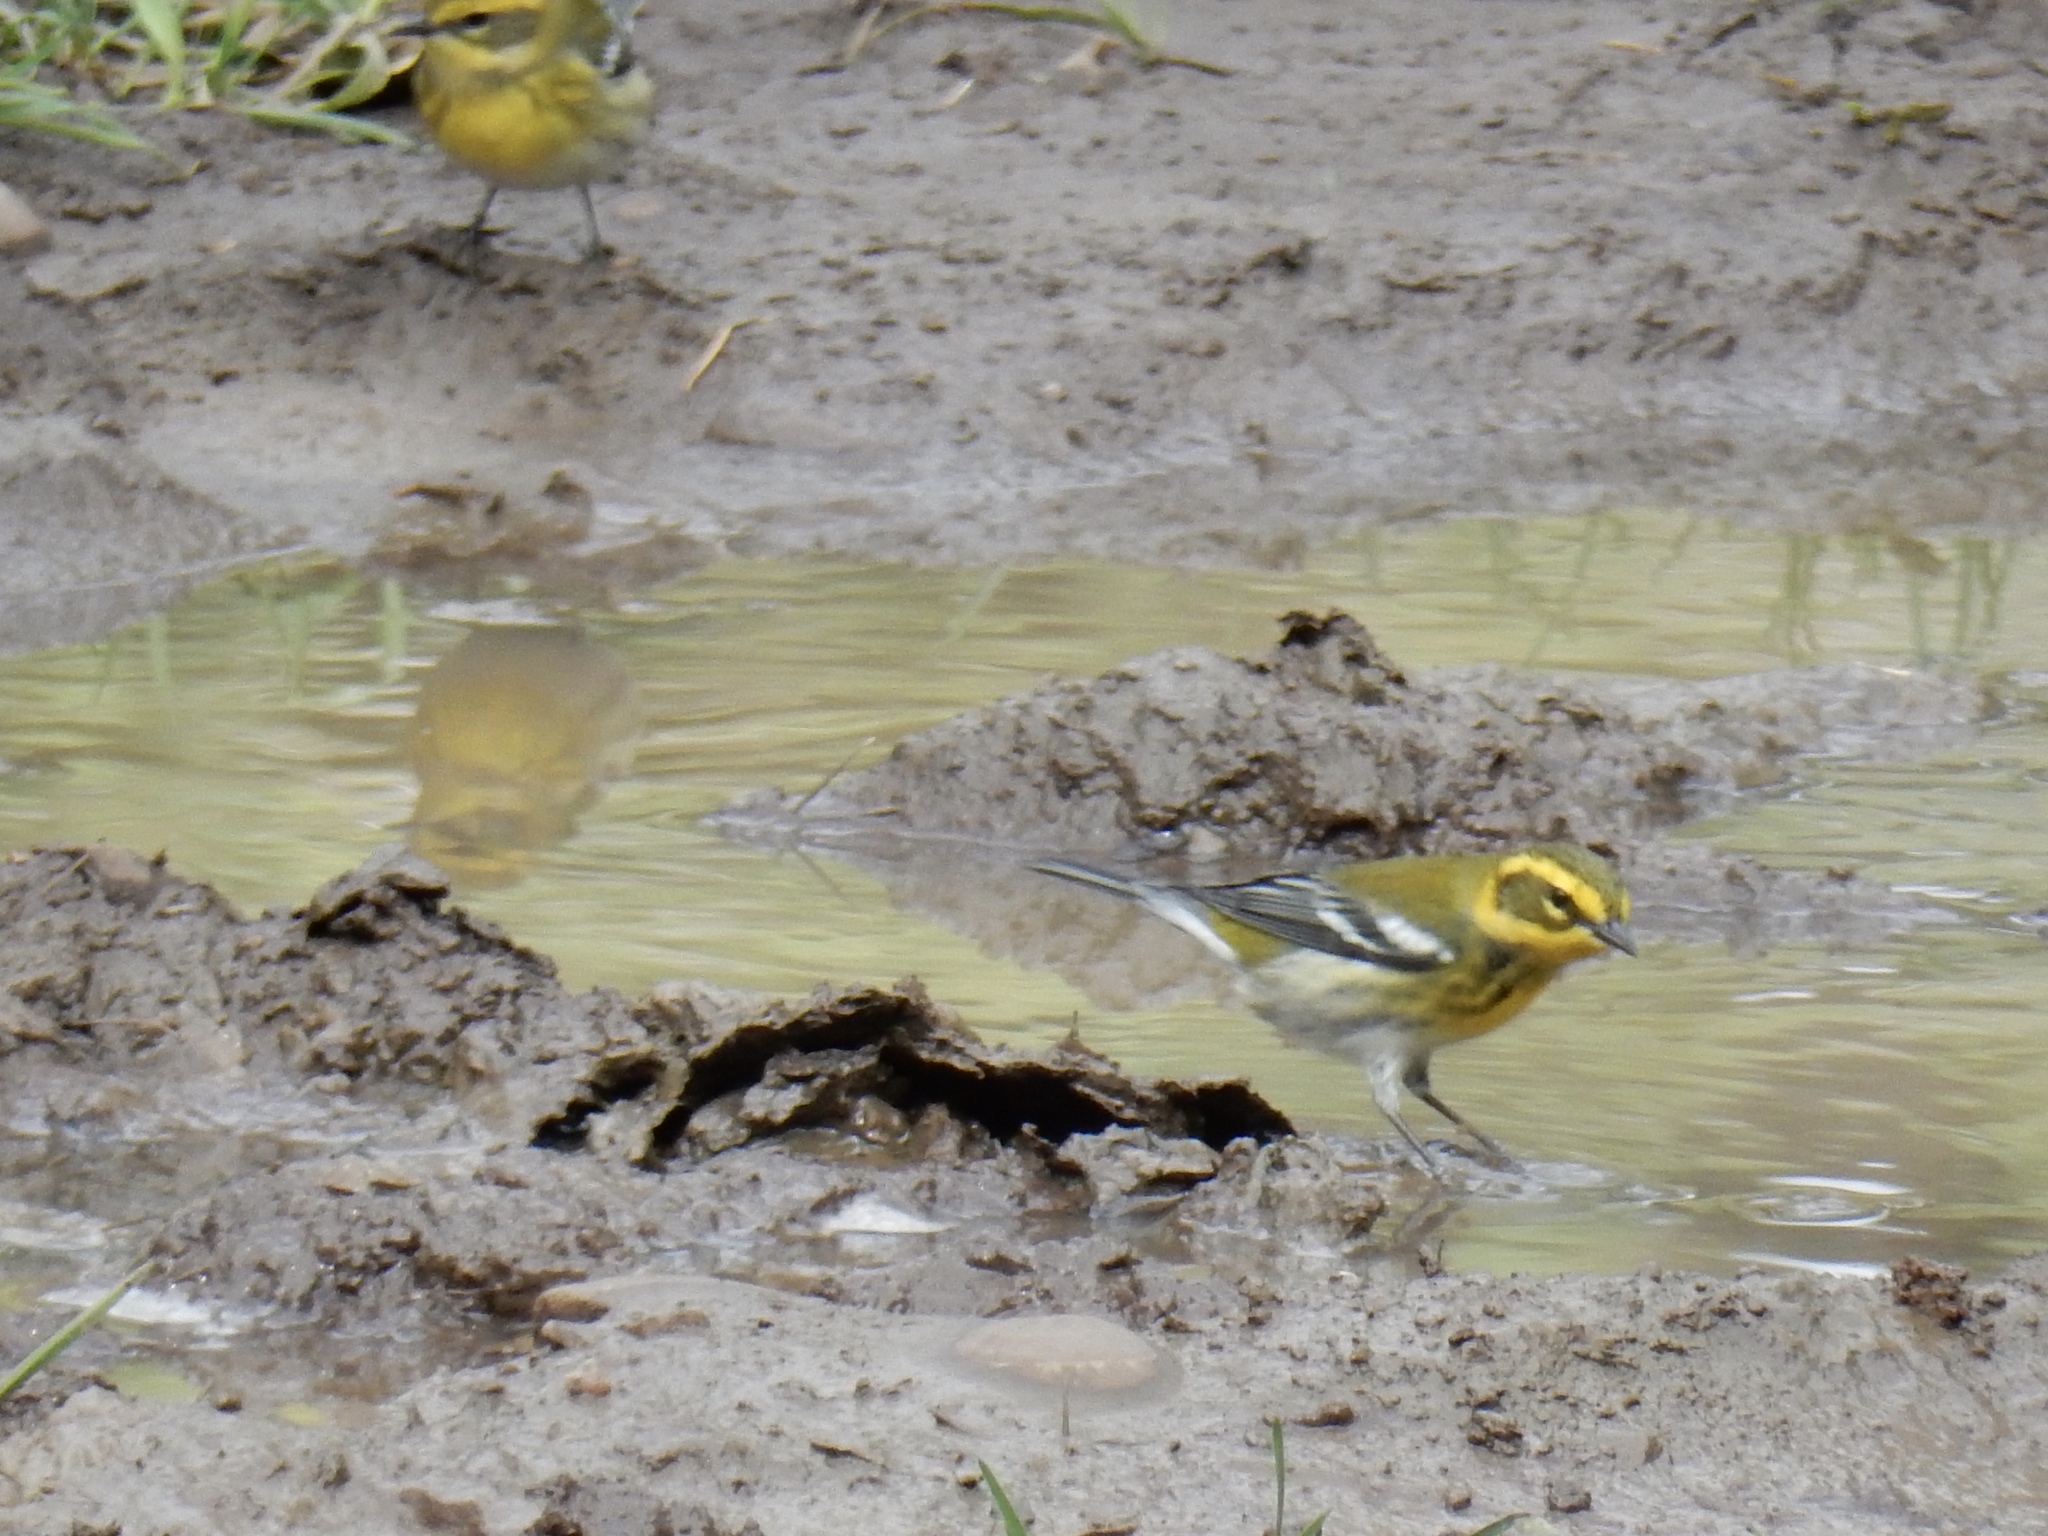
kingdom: Animalia
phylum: Chordata
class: Aves
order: Passeriformes
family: Parulidae
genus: Setophaga
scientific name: Setophaga townsendi
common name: Townsend's warbler
